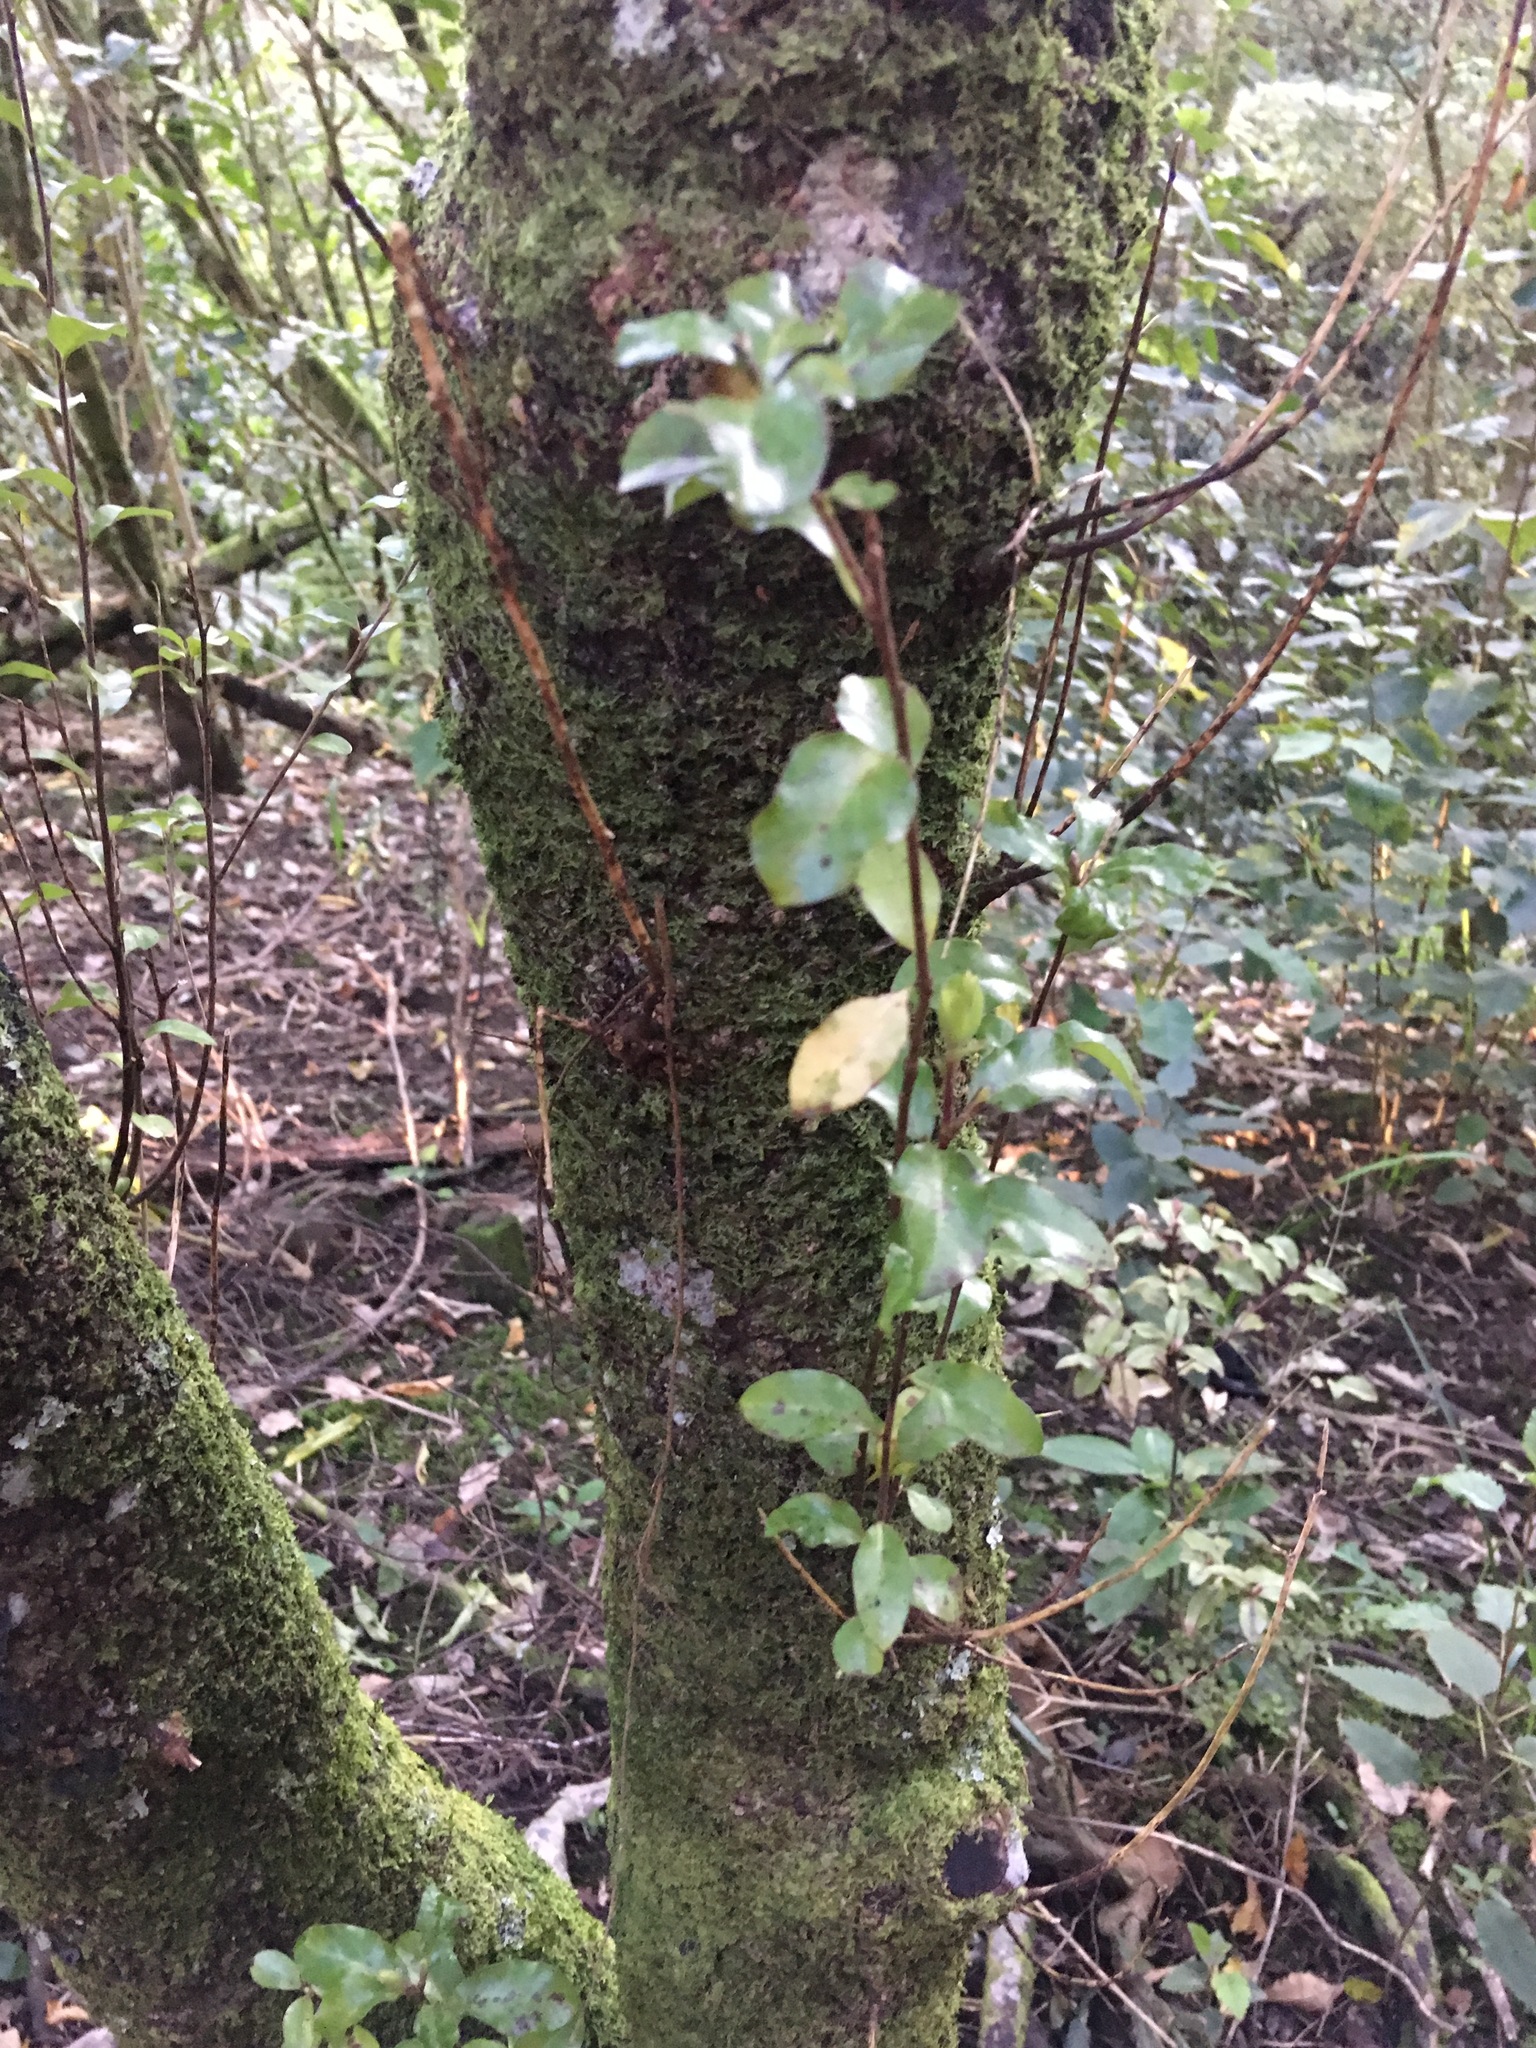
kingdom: Plantae
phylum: Tracheophyta
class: Magnoliopsida
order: Ericales
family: Primulaceae
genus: Myrsine
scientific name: Myrsine australis
